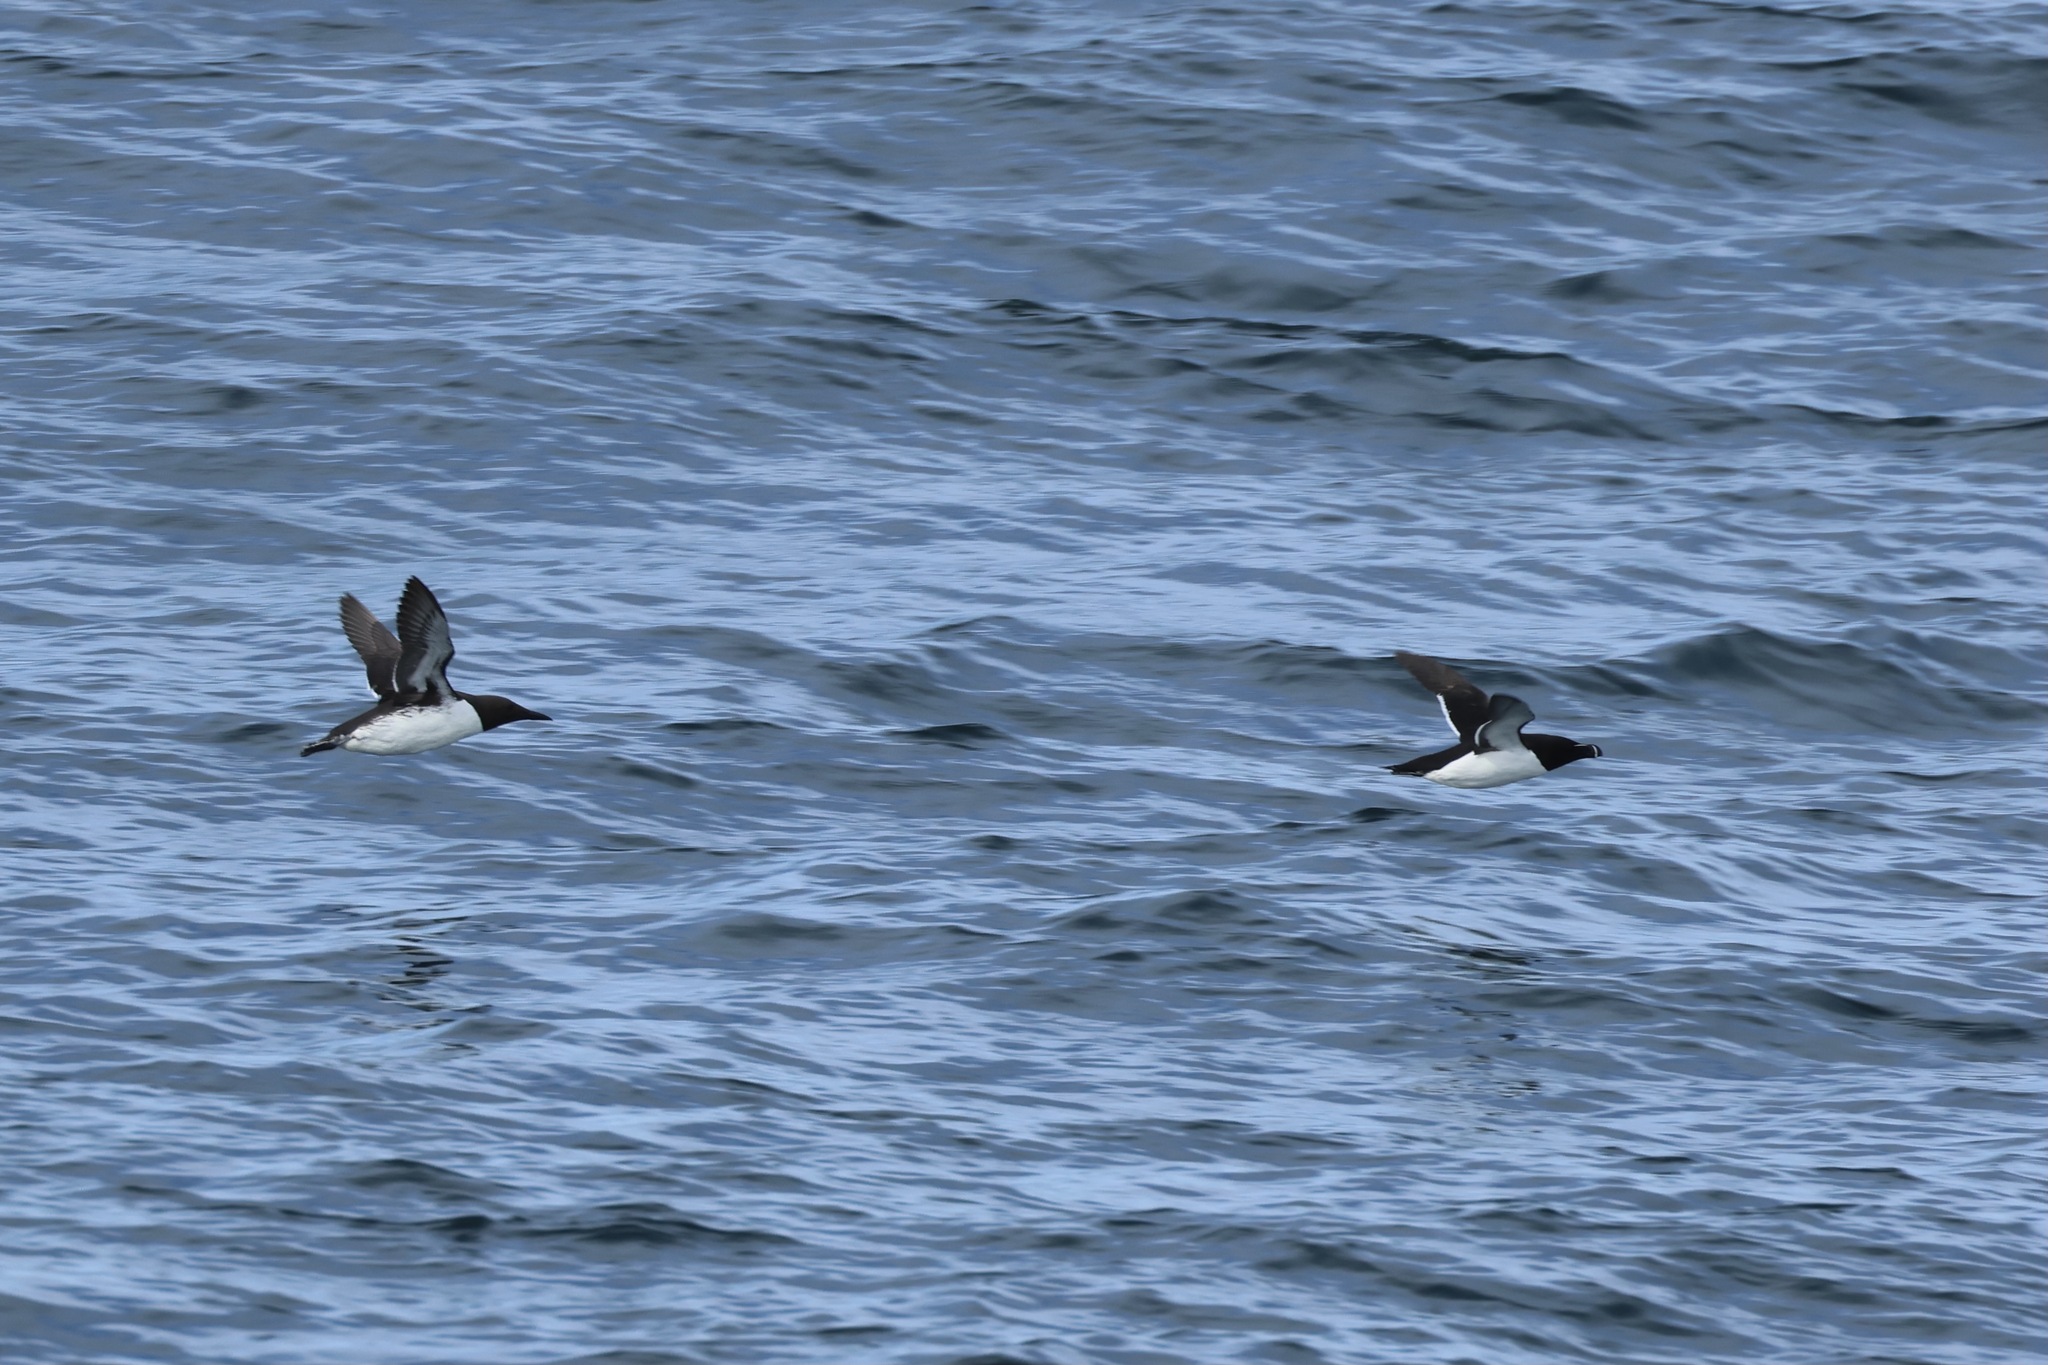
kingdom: Animalia
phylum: Chordata
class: Aves
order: Charadriiformes
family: Alcidae
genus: Alca
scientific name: Alca torda
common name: Razorbill
